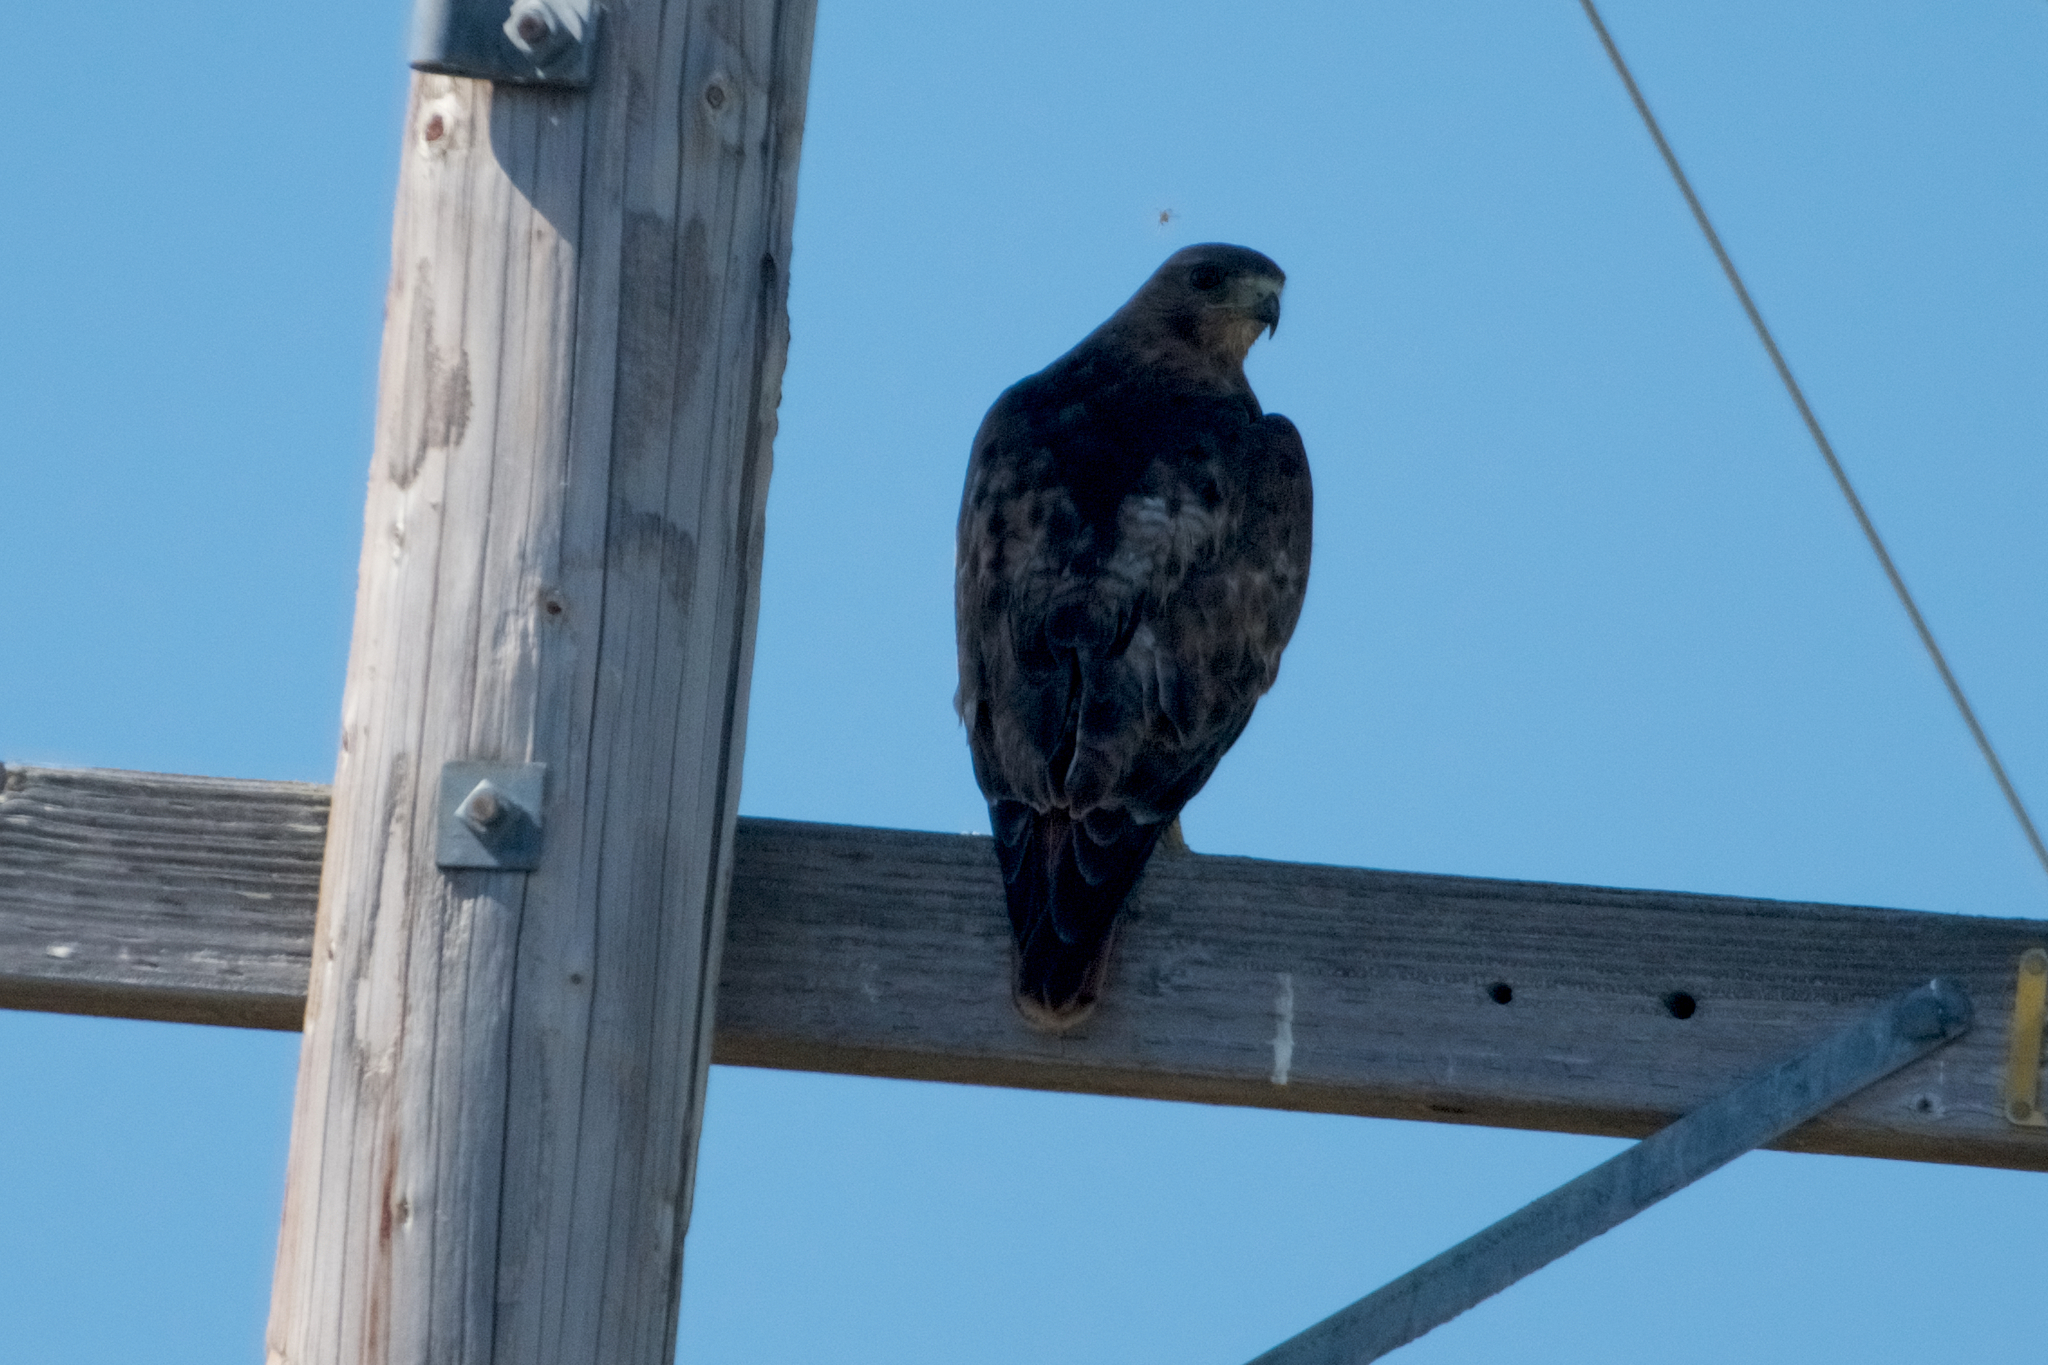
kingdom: Animalia
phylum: Chordata
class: Aves
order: Accipitriformes
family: Accipitridae
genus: Buteo
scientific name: Buteo jamaicensis
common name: Red-tailed hawk
